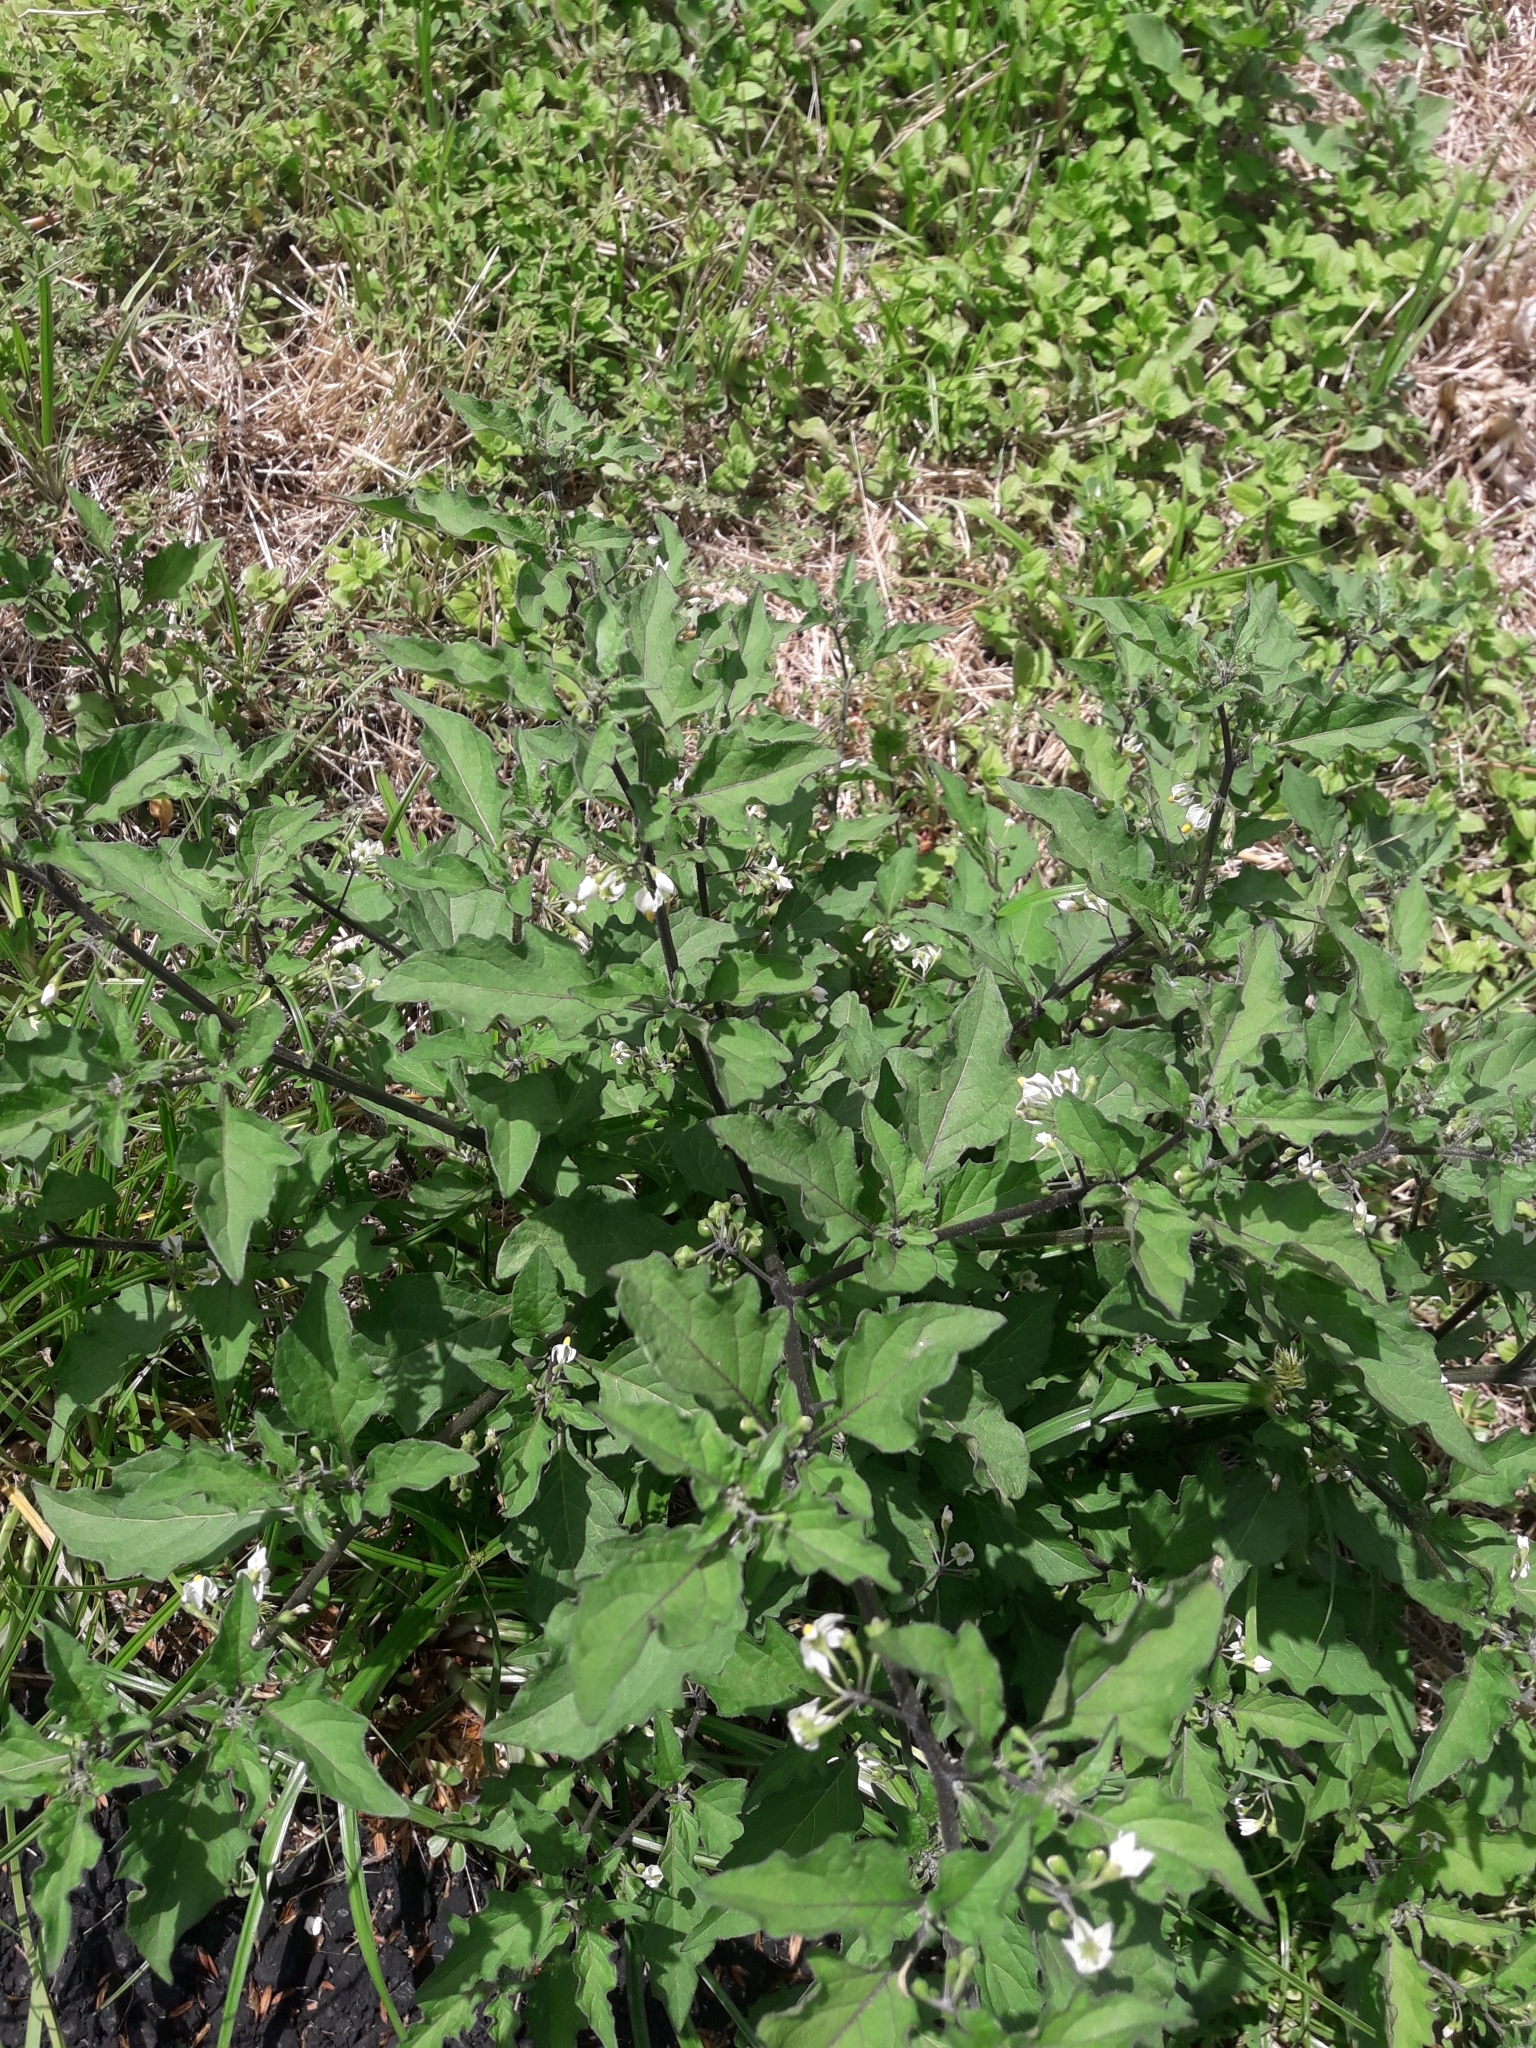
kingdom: Plantae
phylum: Tracheophyta
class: Magnoliopsida
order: Solanales
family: Solanaceae
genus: Solanum
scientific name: Solanum nigrum
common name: Black nightshade
